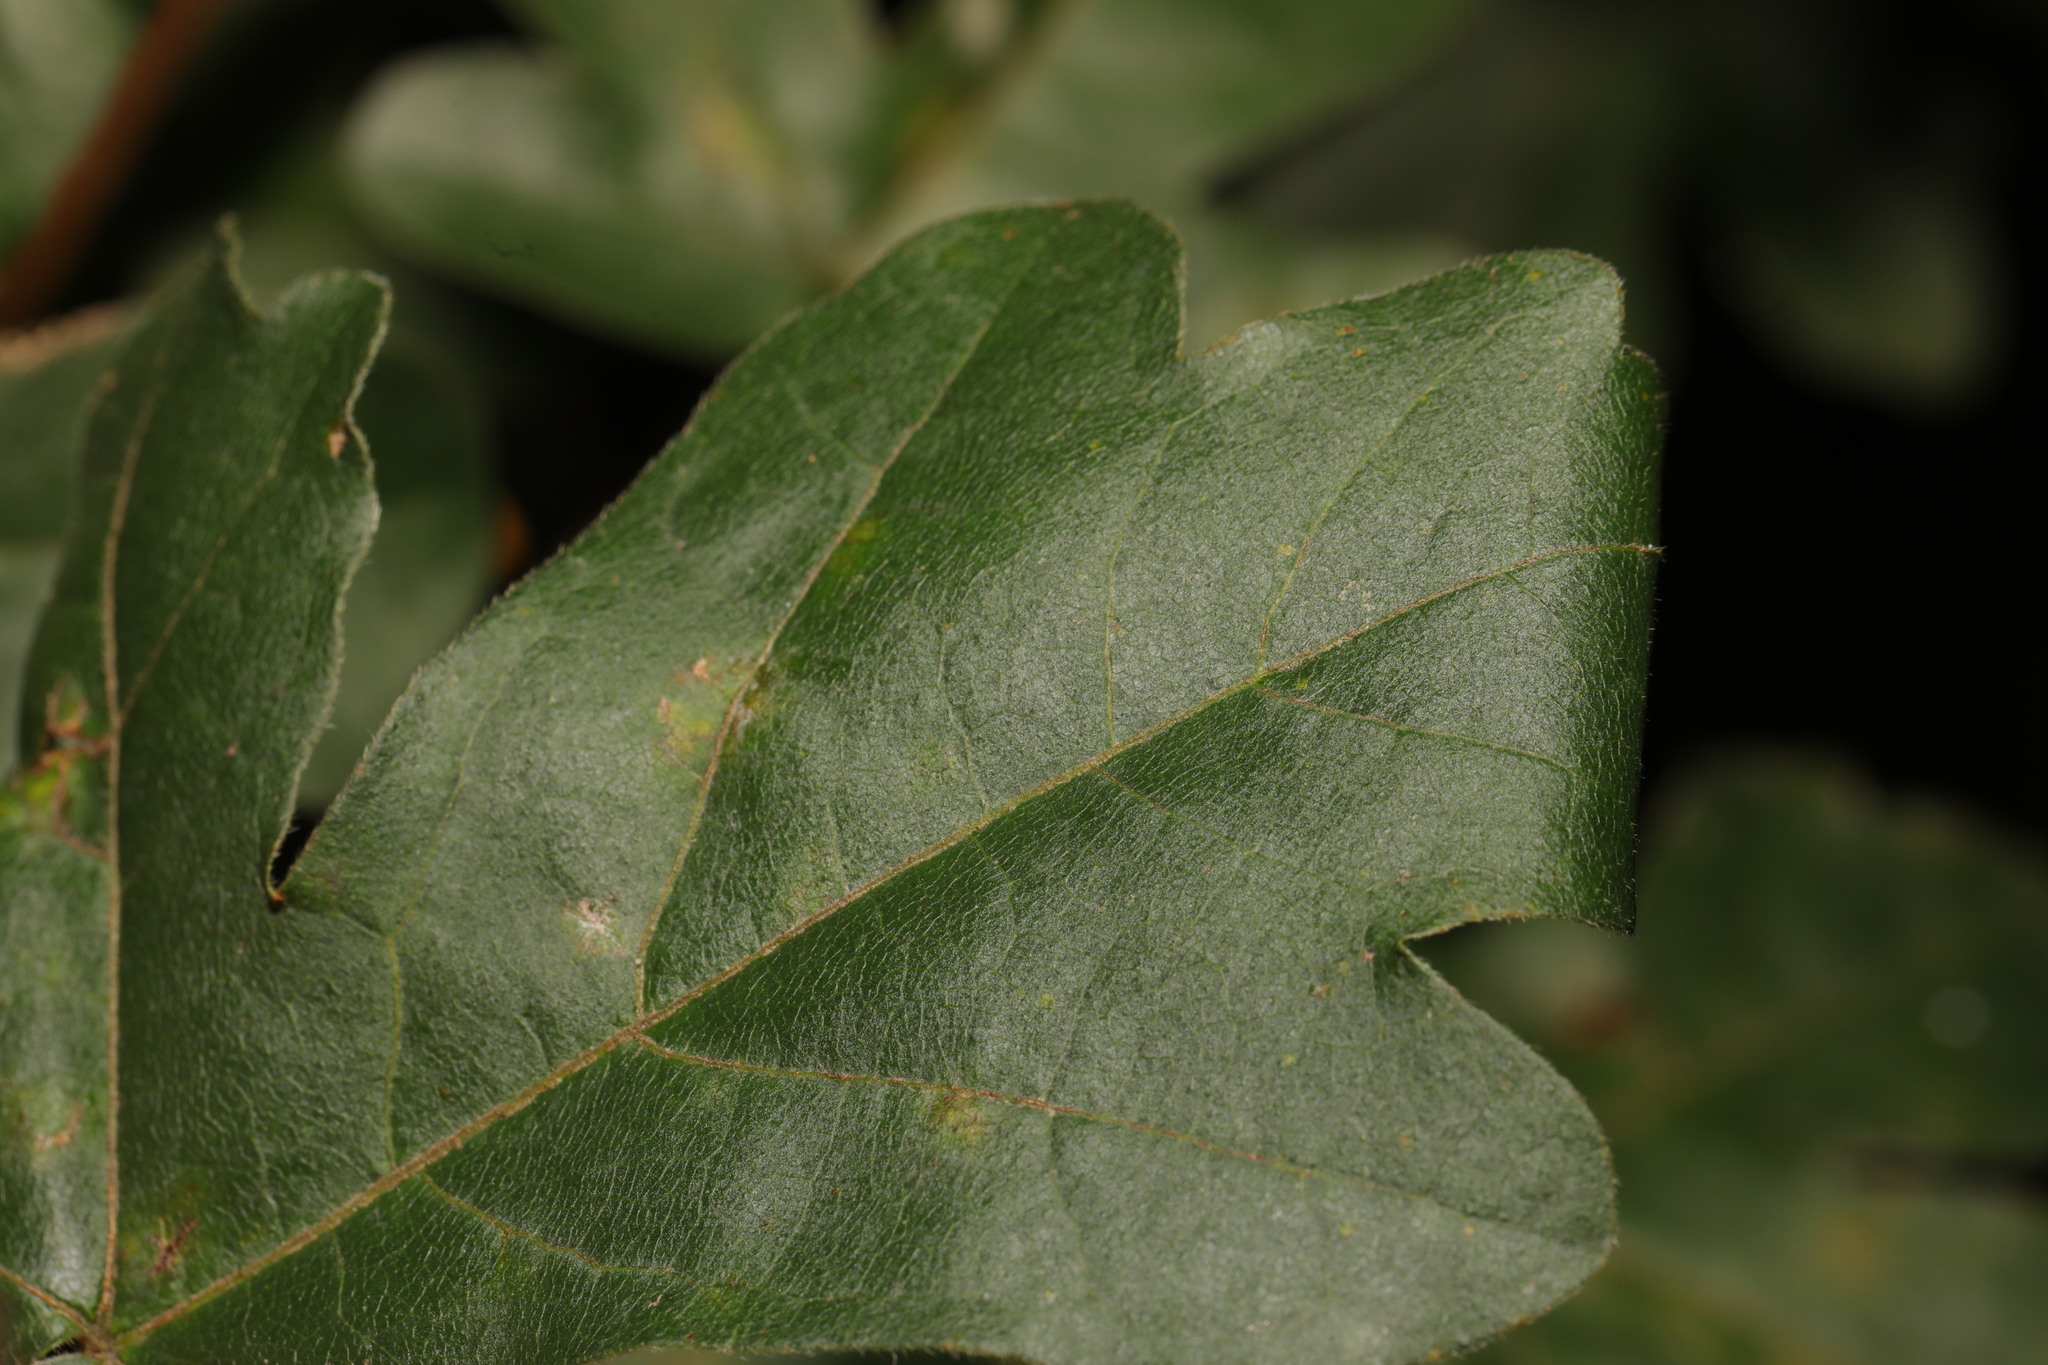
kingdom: Animalia
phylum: Arthropoda
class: Insecta
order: Lepidoptera
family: Gracillariidae
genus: Caloptilia
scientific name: Caloptilia rufipennella
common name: Small red slender
